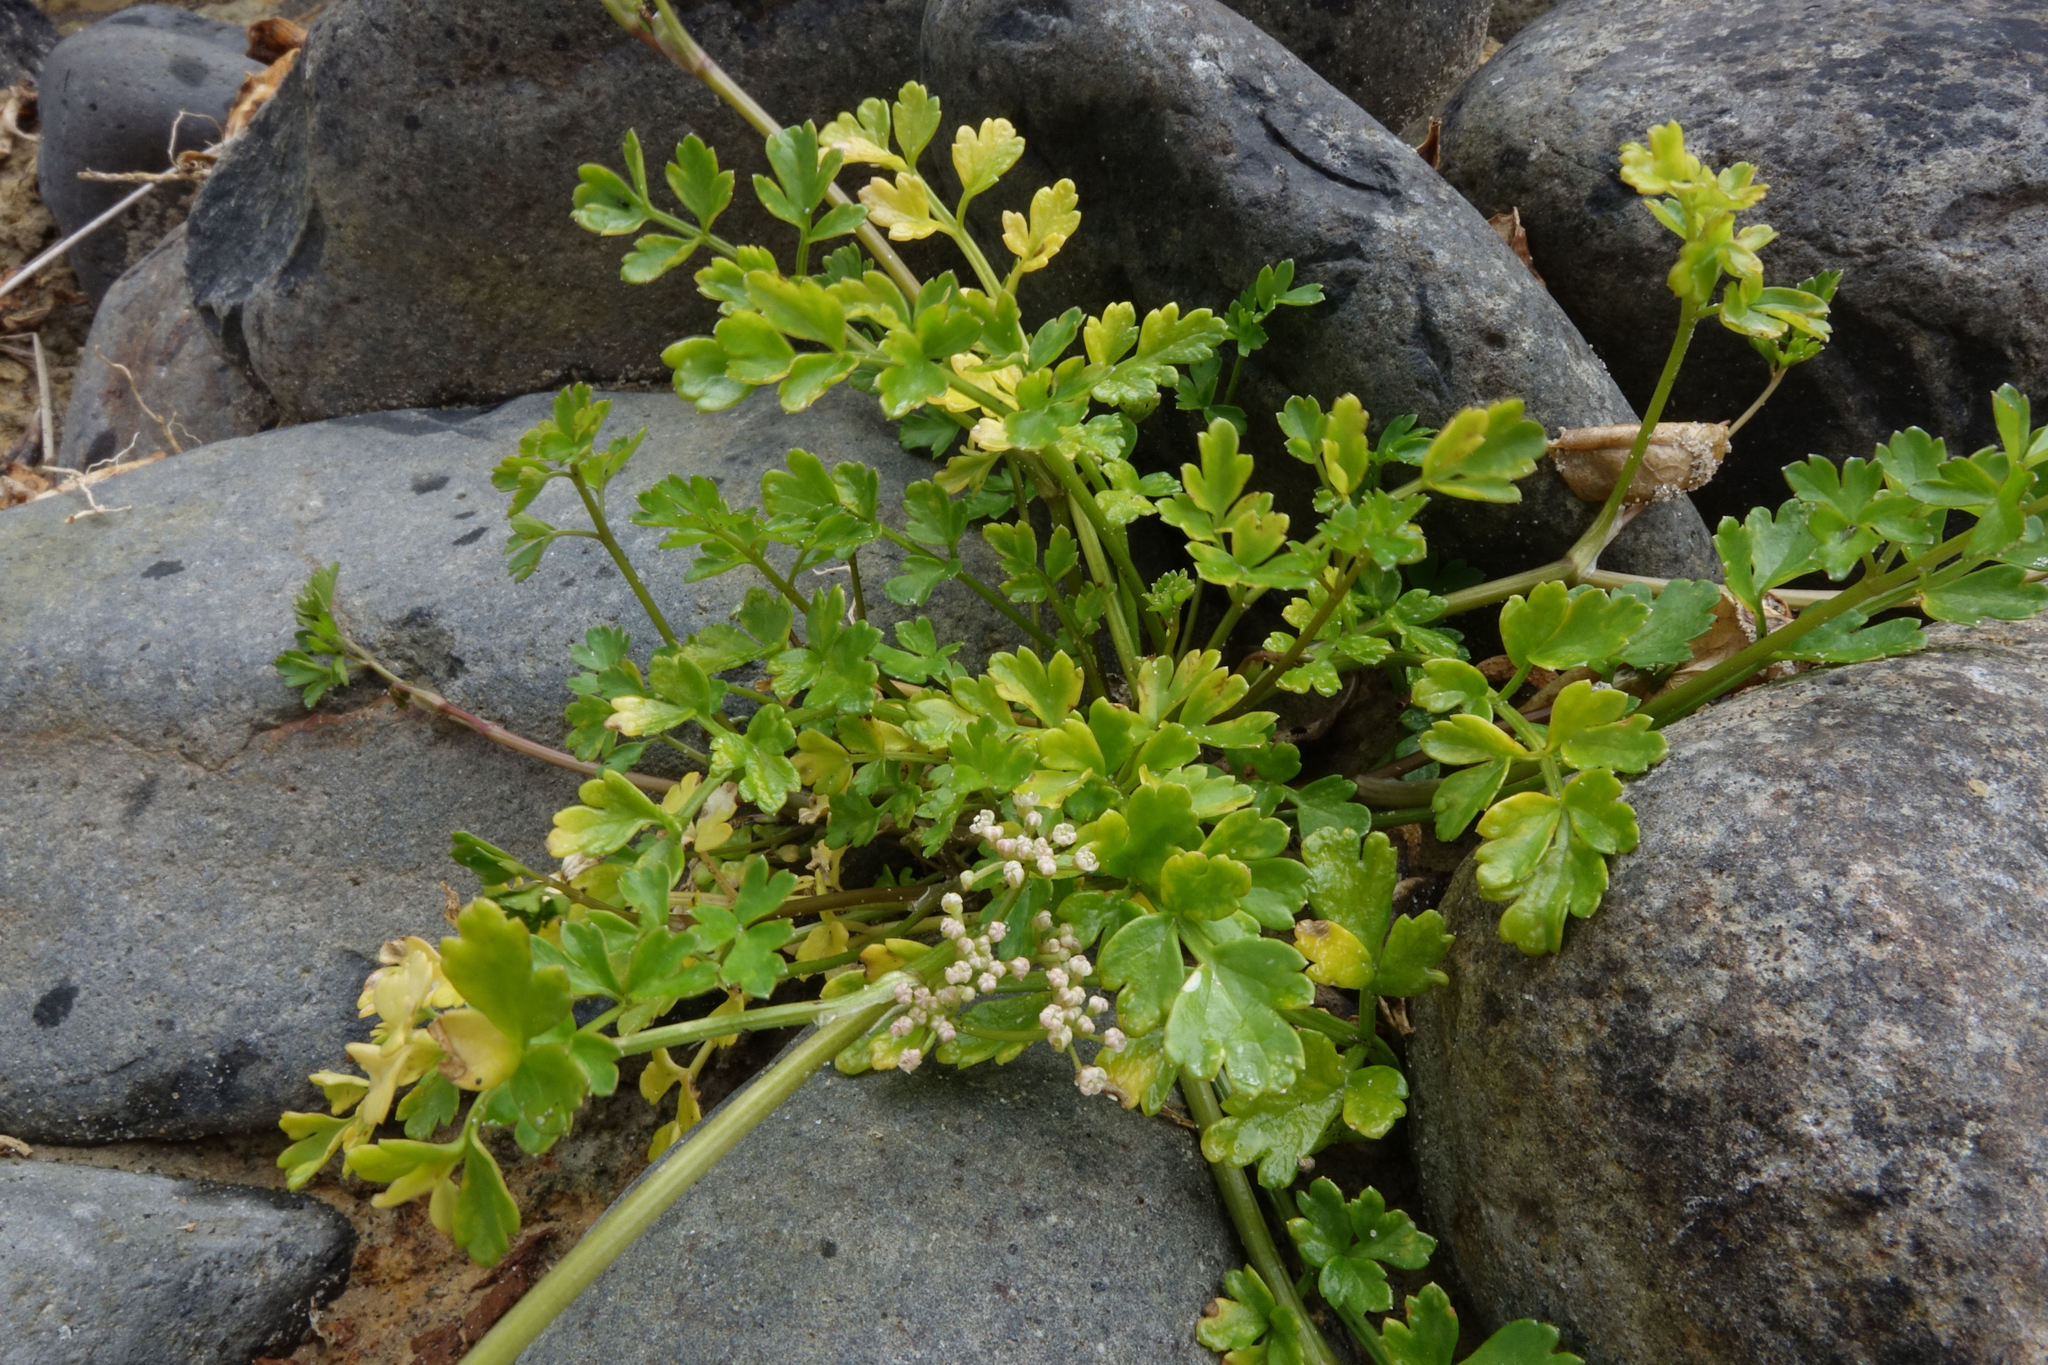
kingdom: Plantae
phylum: Tracheophyta
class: Magnoliopsida
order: Apiales
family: Apiaceae
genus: Apium
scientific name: Apium prostratum
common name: Prostrate marshwort
